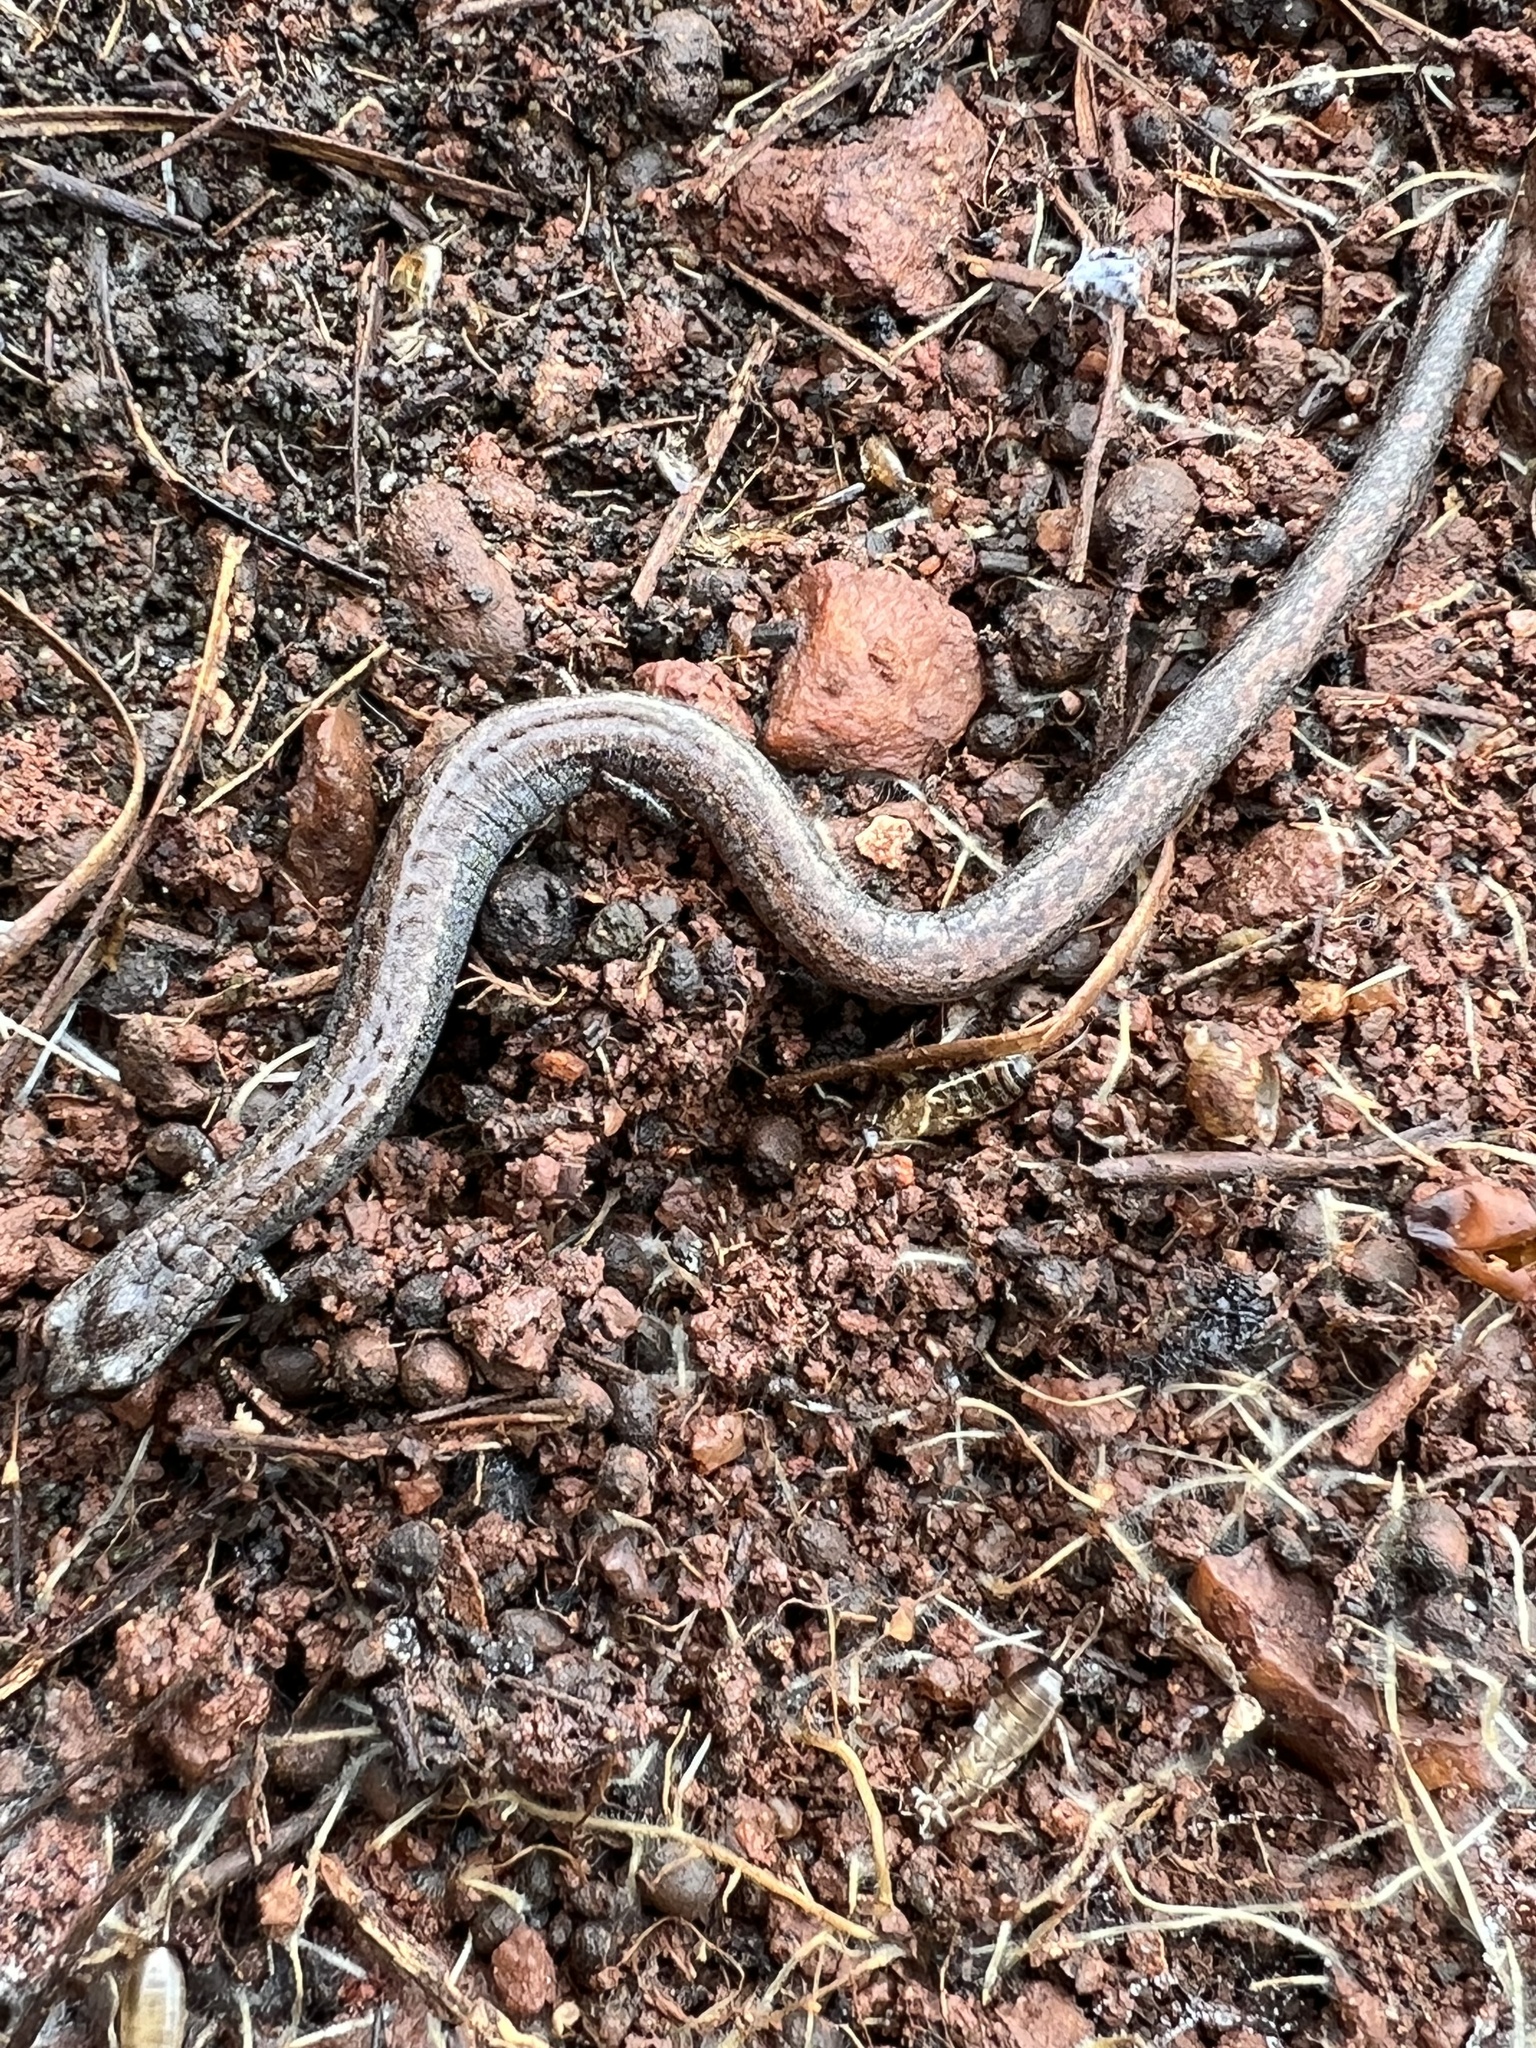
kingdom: Animalia
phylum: Chordata
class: Amphibia
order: Caudata
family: Plethodontidae
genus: Batrachoseps
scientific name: Batrachoseps major
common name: Garden slender salamander
